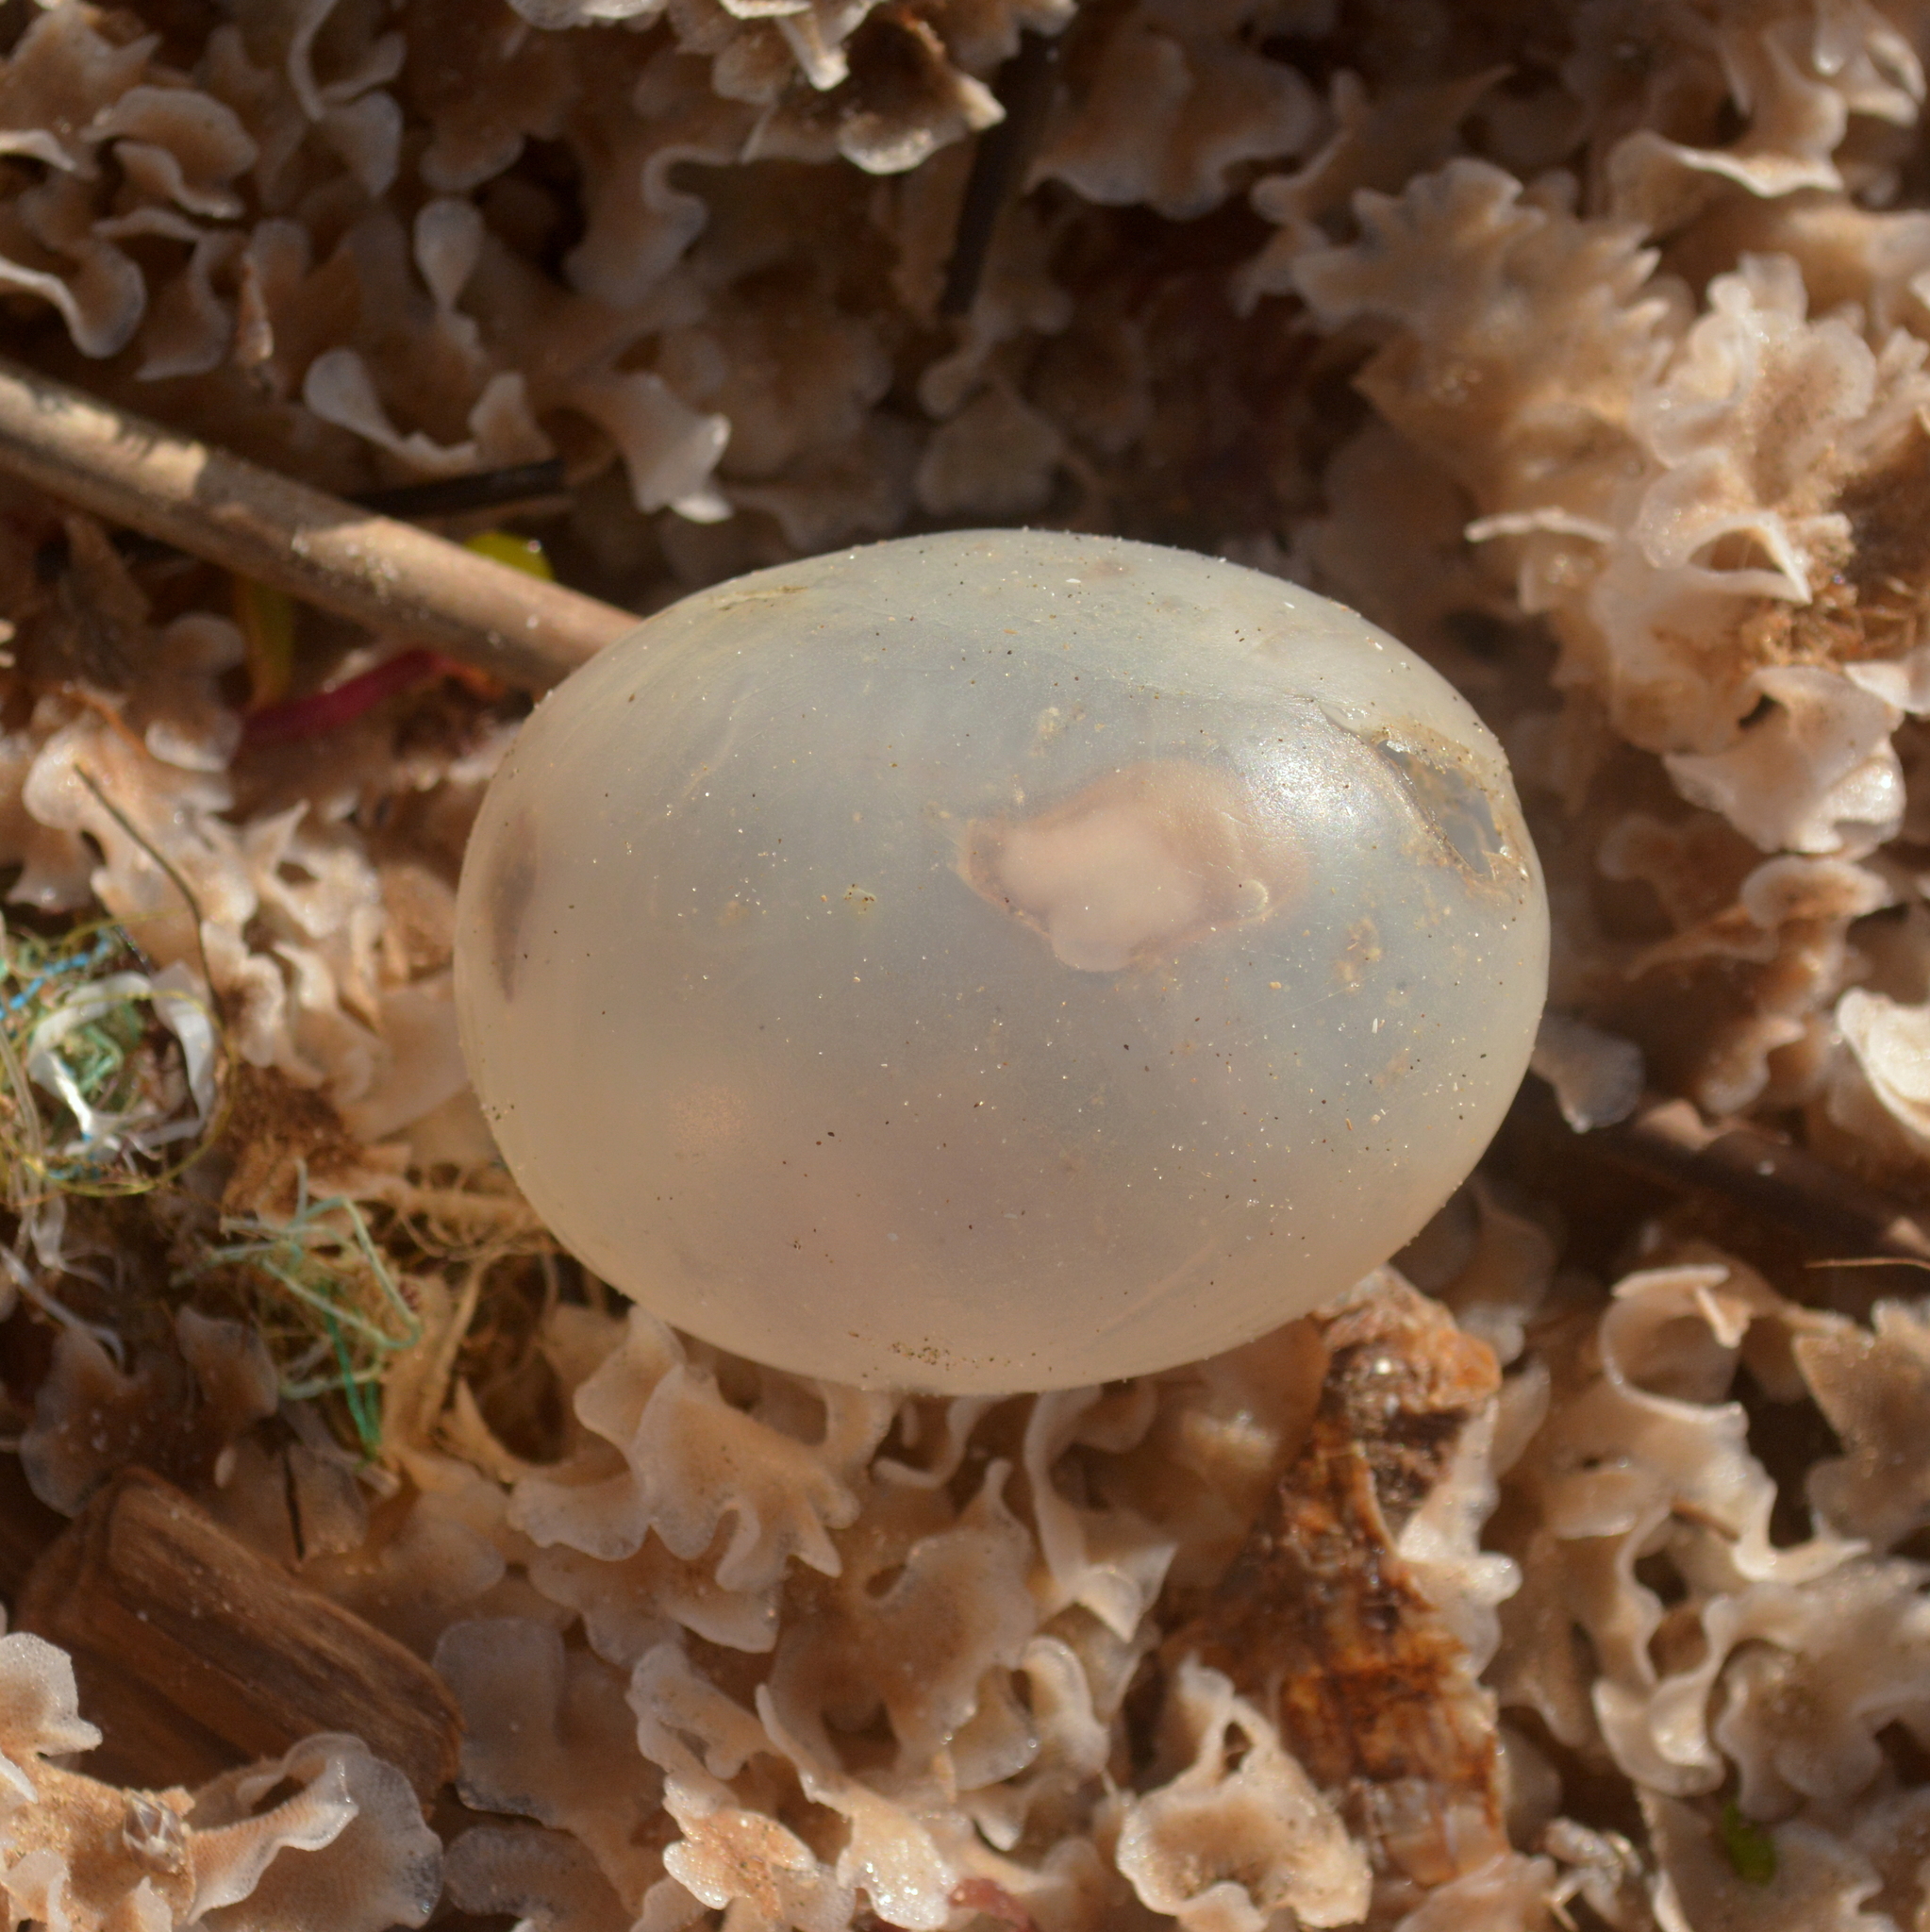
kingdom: Animalia
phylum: Mollusca
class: Gastropoda
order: Neogastropoda
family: Volutidae
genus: Pachycymbiola
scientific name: Pachycymbiola brasiliana
